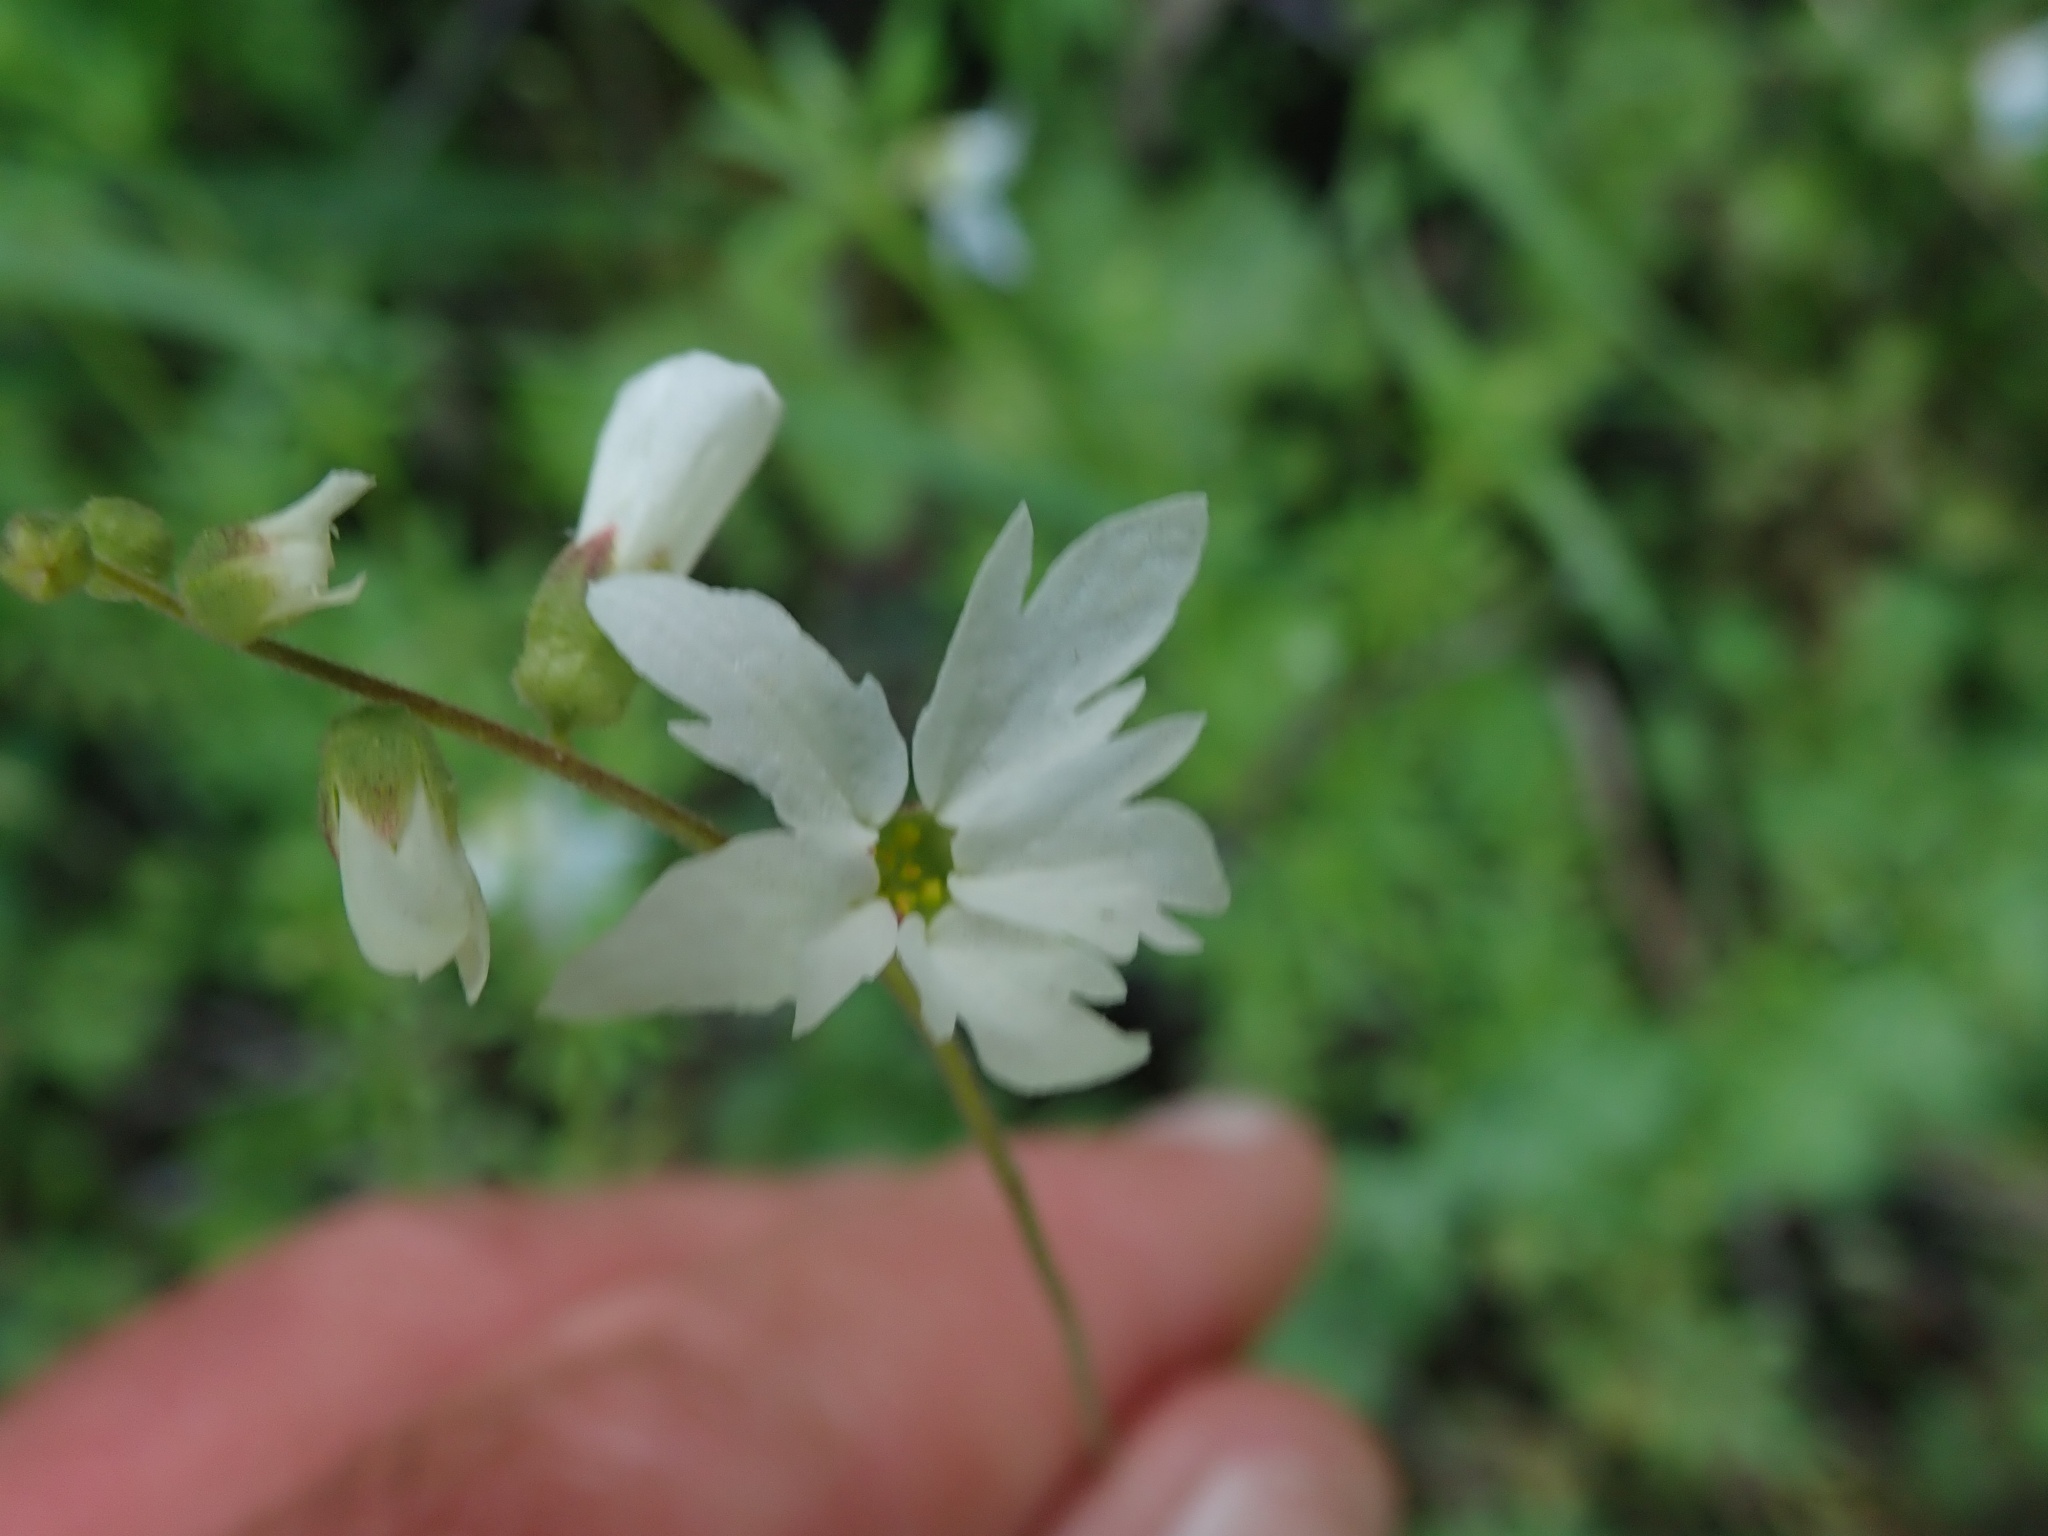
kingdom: Plantae
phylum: Tracheophyta
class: Magnoliopsida
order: Saxifragales
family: Saxifragaceae
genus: Lithophragma
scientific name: Lithophragma heterophyllum
